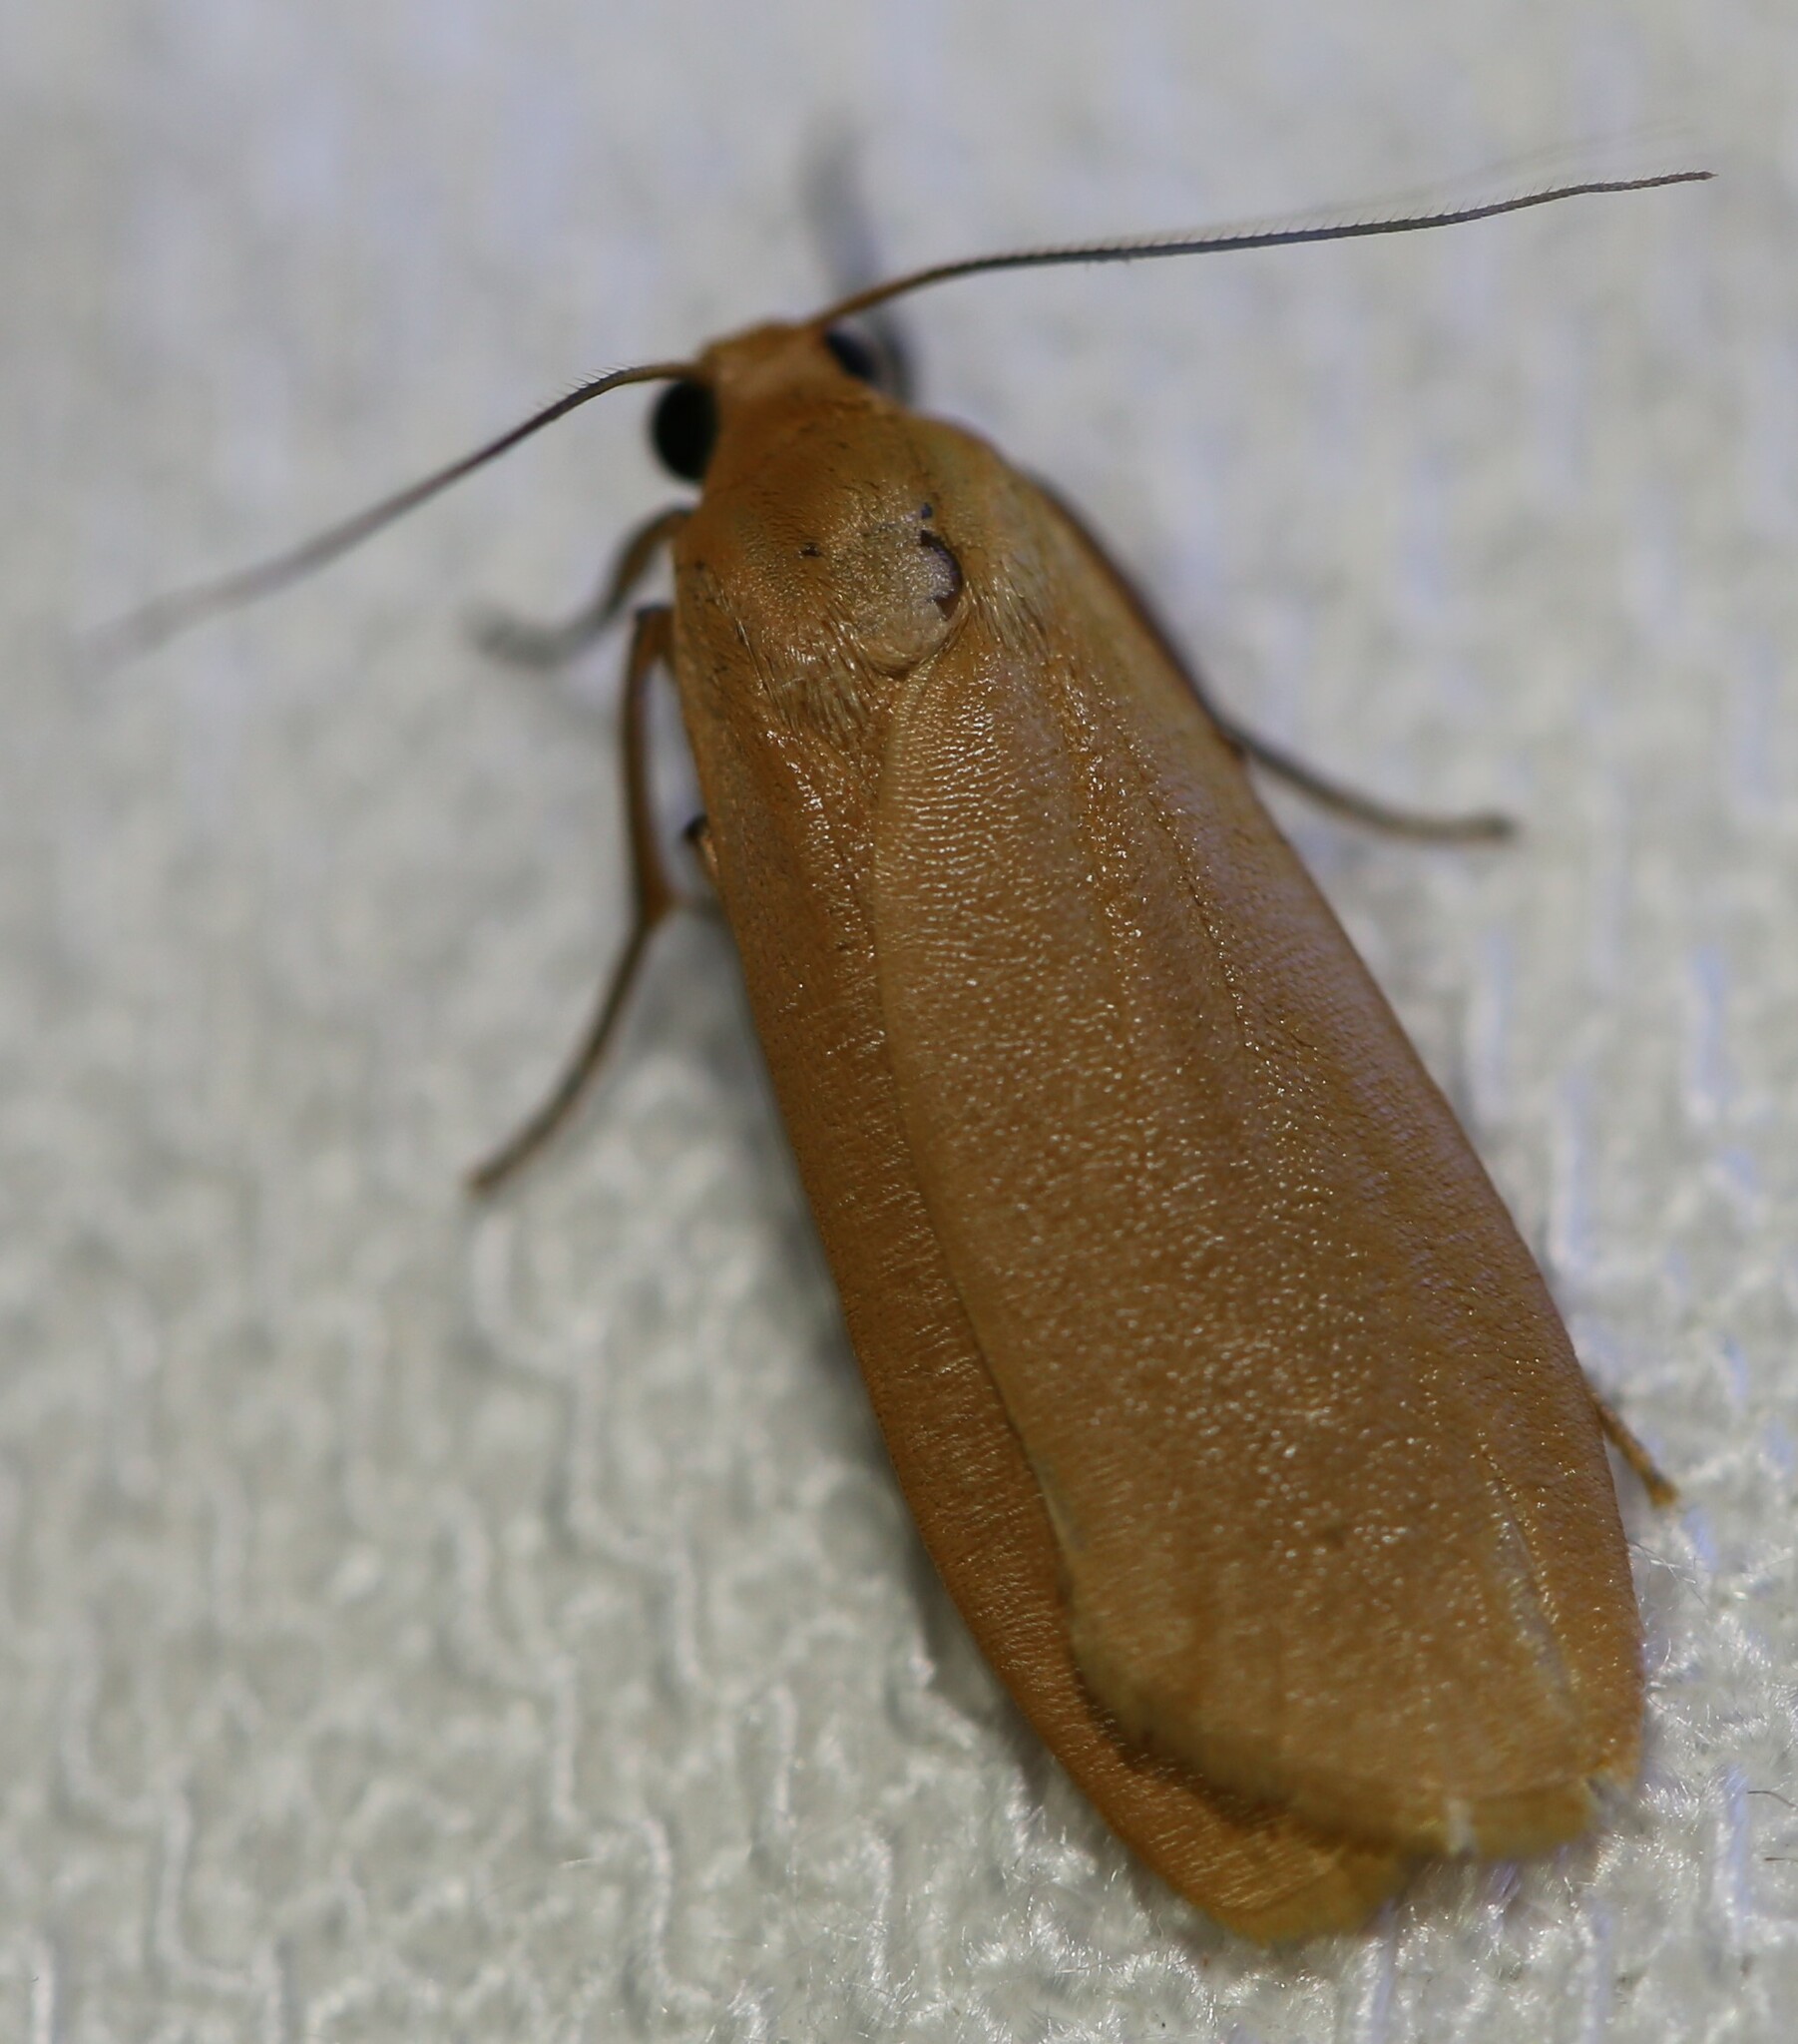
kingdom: Animalia
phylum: Arthropoda
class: Insecta
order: Lepidoptera
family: Erebidae
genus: Eilema
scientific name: Eilema plana
